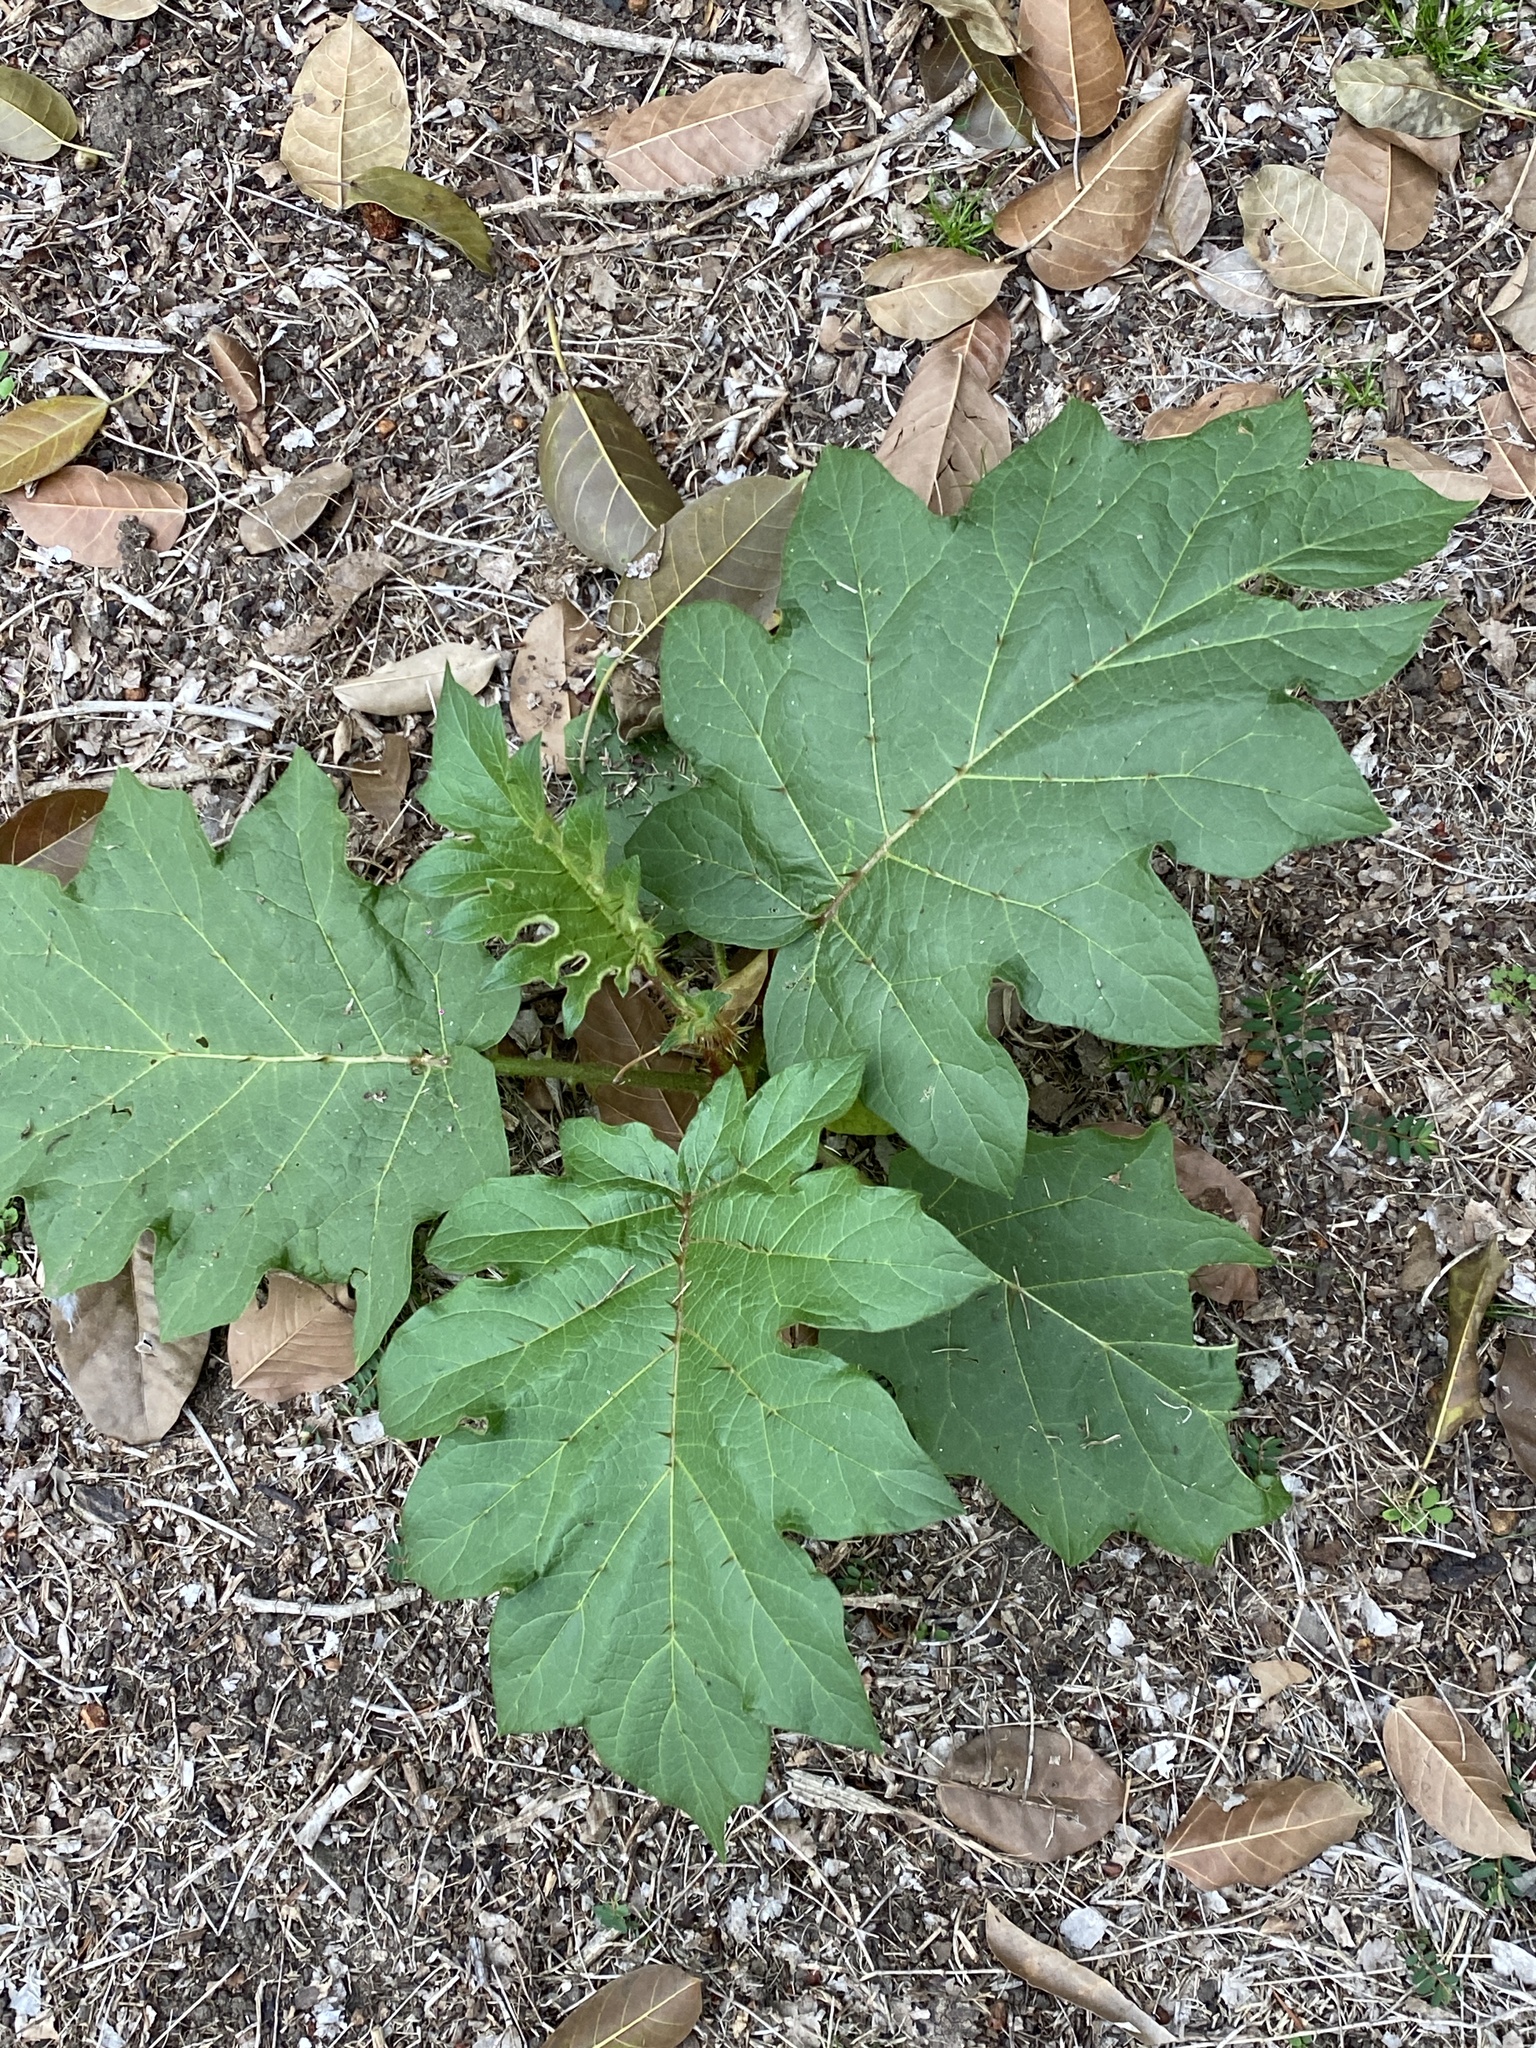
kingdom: Plantae
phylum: Tracheophyta
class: Magnoliopsida
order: Solanales
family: Solanaceae
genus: Solanum
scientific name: Solanum chrysotrichum
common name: Nightshade
